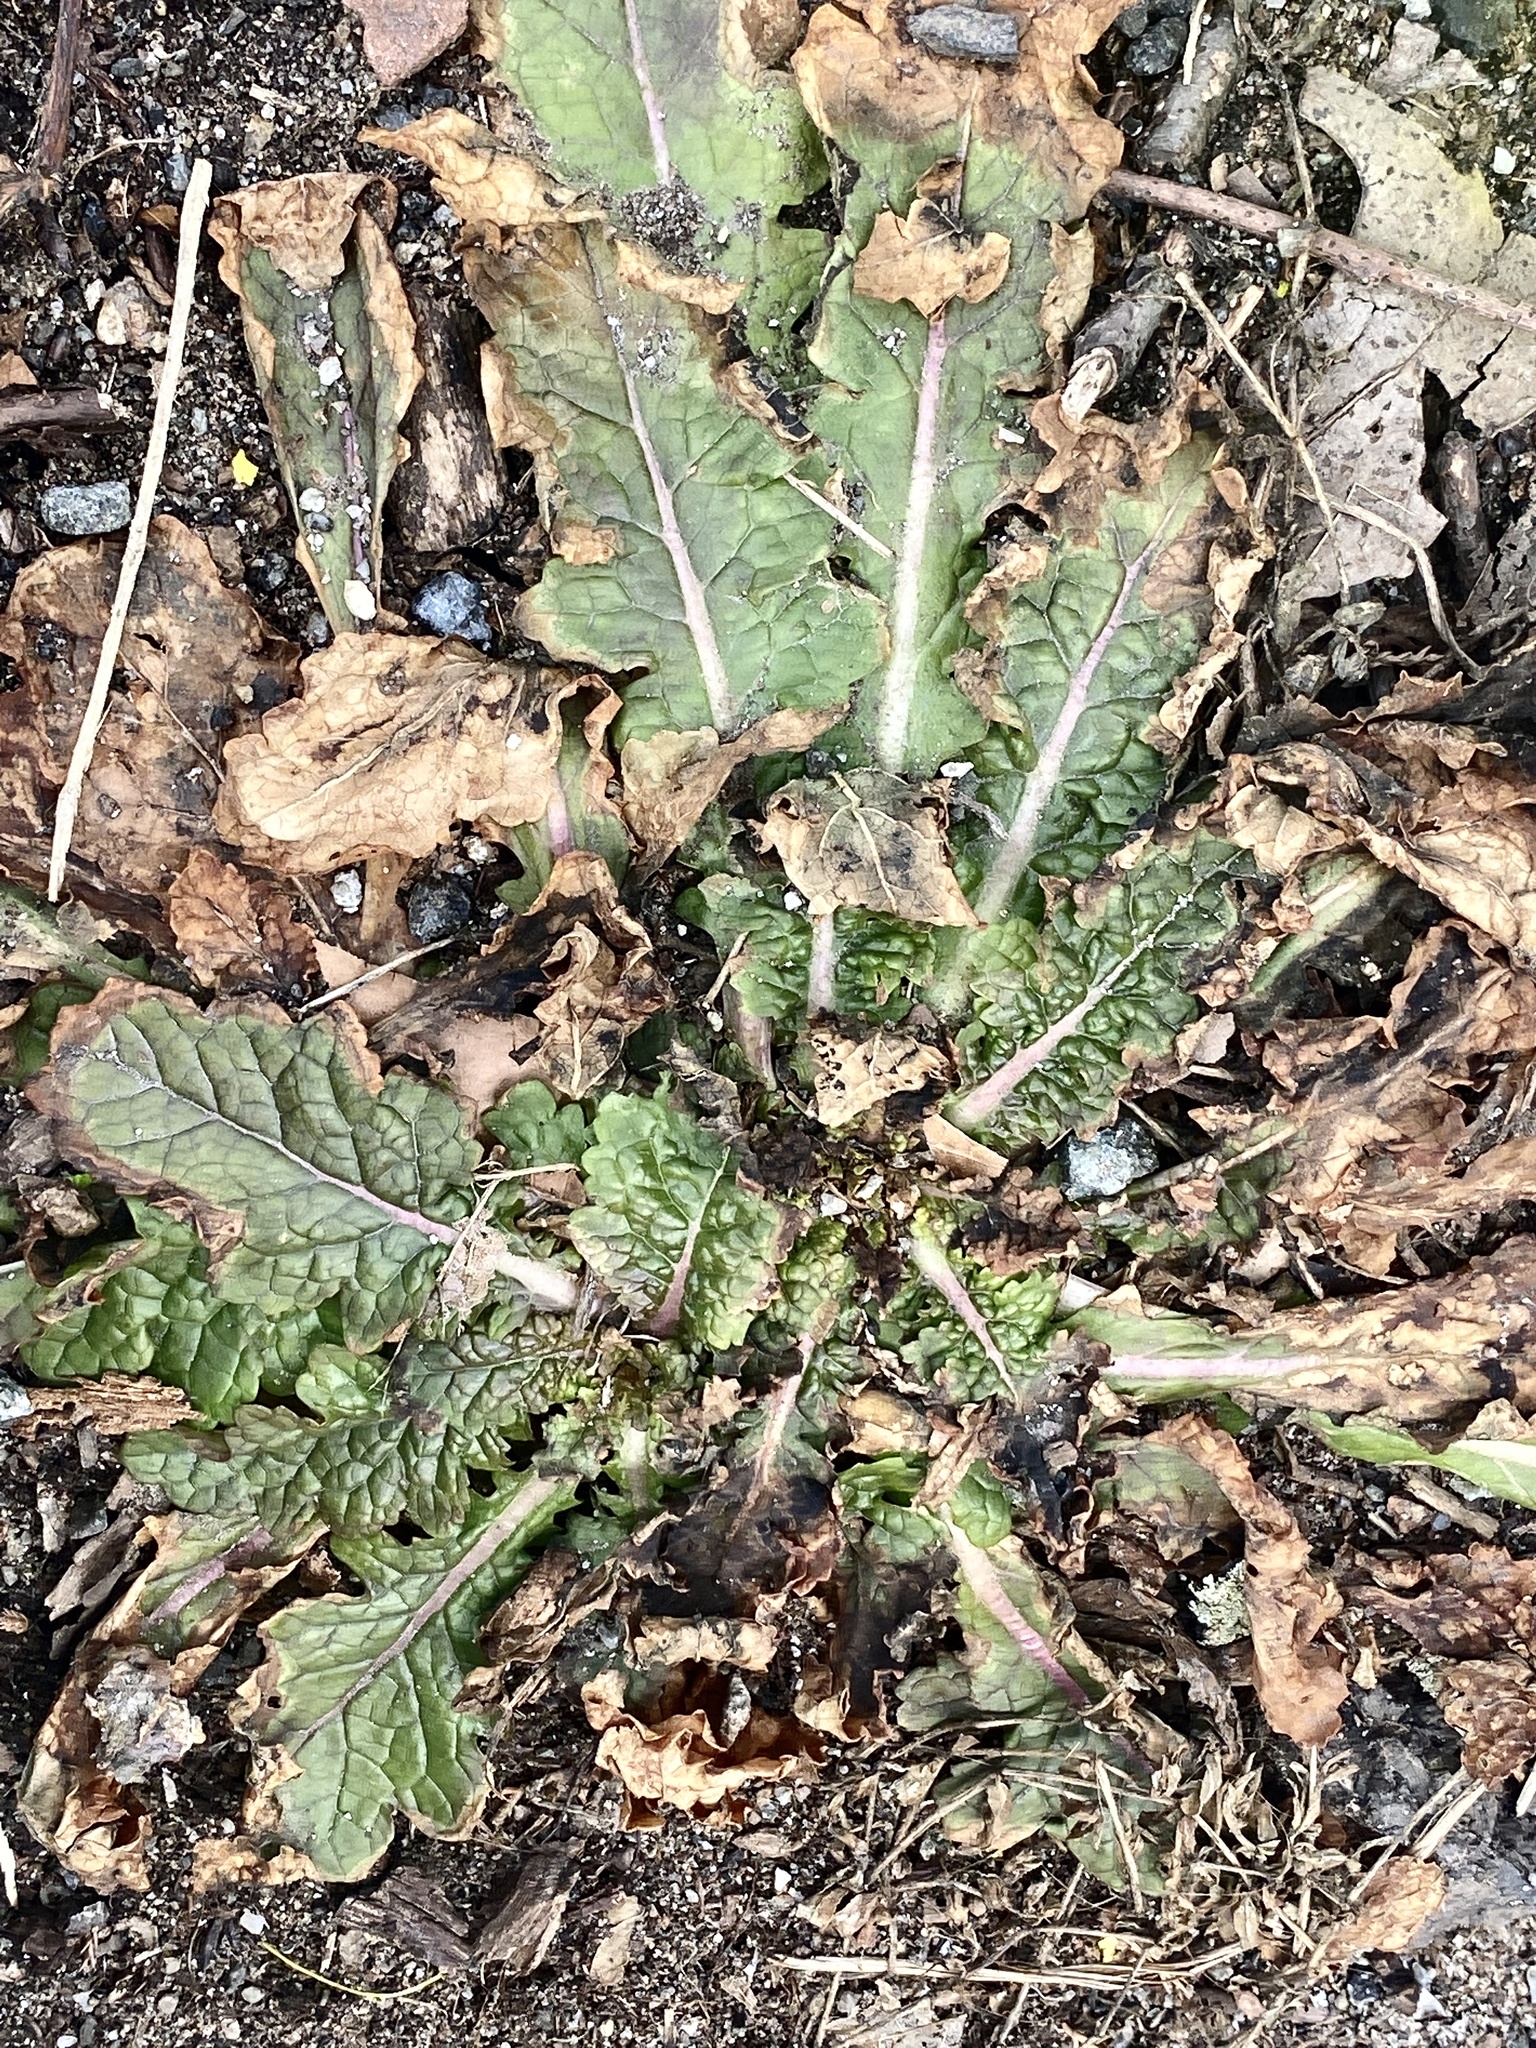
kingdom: Plantae
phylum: Tracheophyta
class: Magnoliopsida
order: Lamiales
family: Scrophulariaceae
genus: Verbascum
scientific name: Verbascum blattaria
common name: Moth mullein
